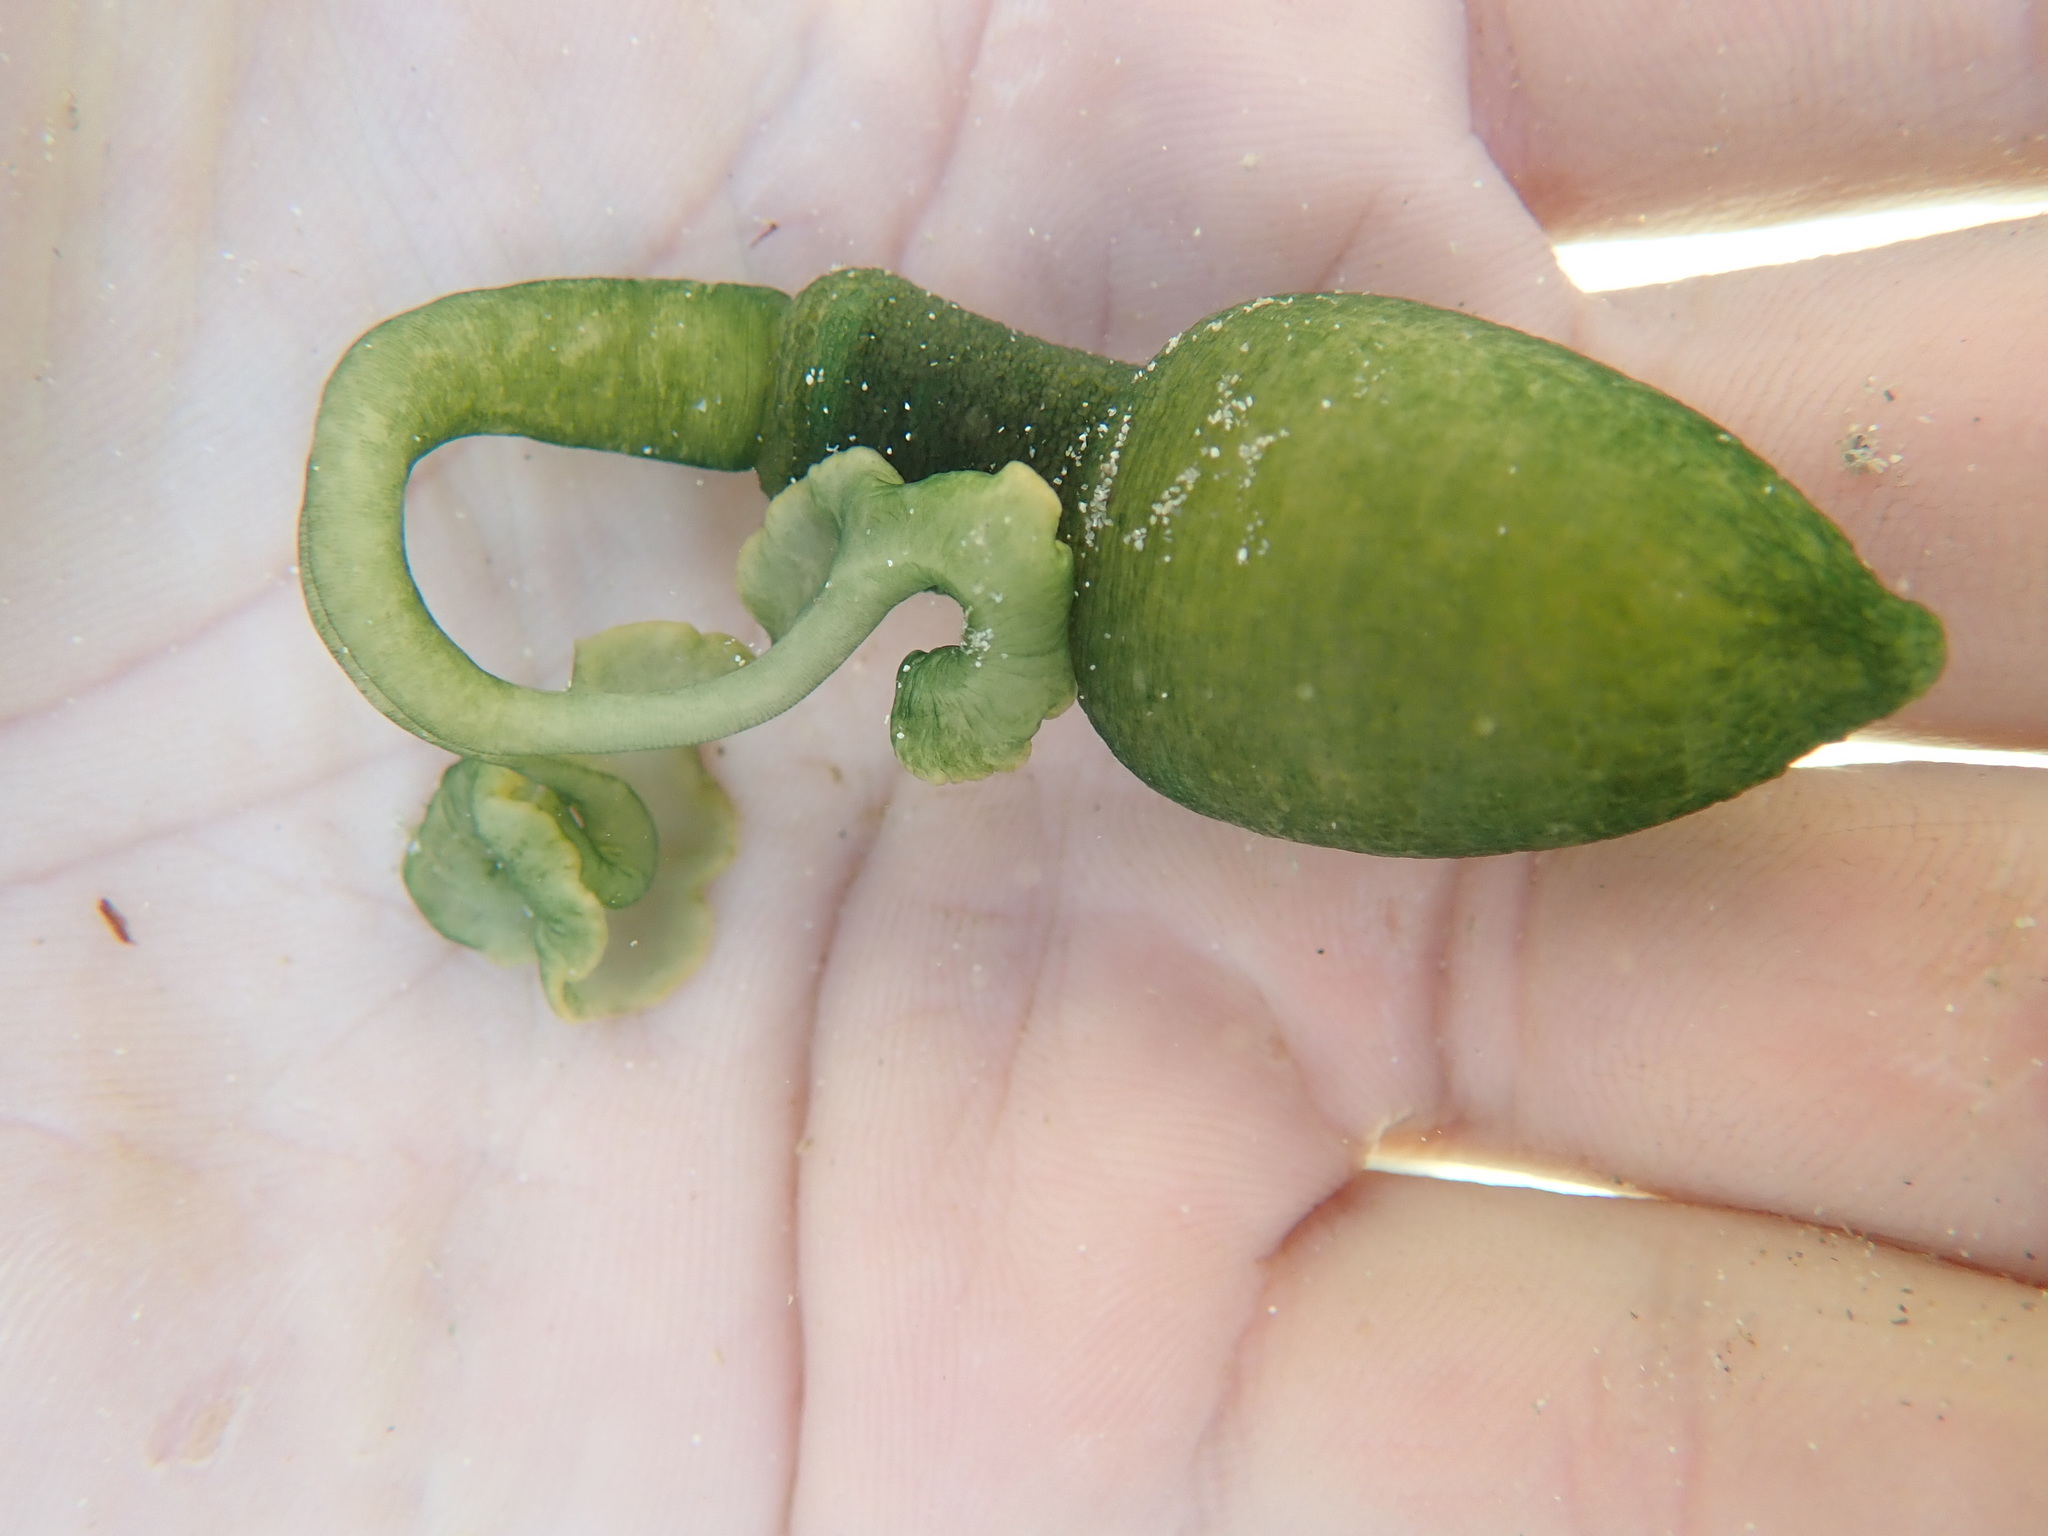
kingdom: Animalia
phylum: Annelida
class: Polychaeta
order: Echiuroidea
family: Bonelliidae
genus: Metabonellia
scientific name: Metabonellia haswelli
